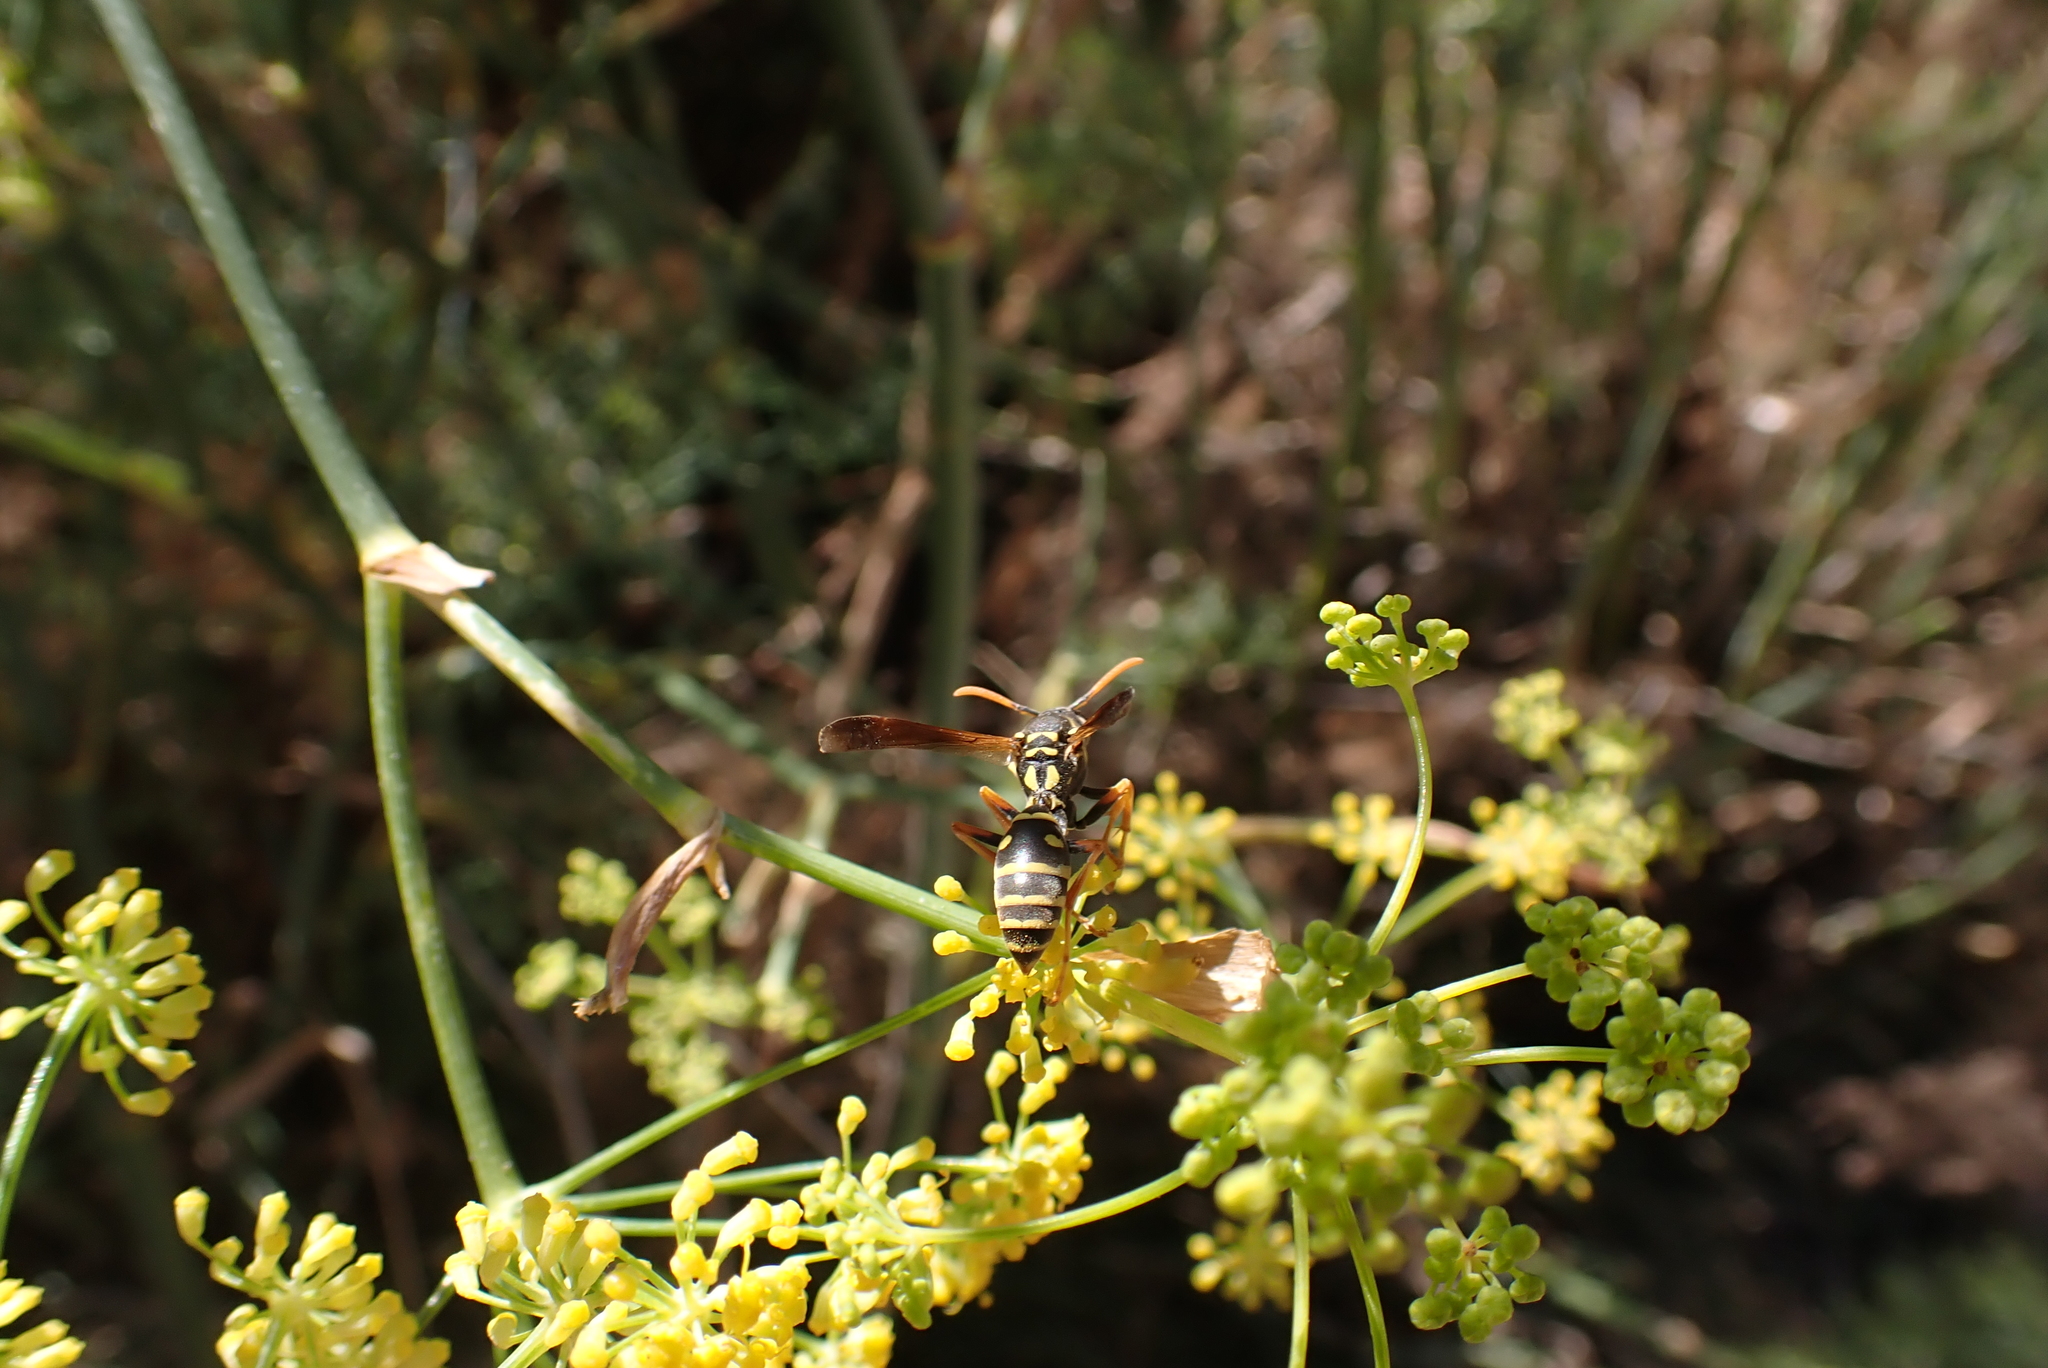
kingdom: Animalia
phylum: Arthropoda
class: Insecta
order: Hymenoptera
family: Eumenidae
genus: Polistes
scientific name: Polistes chinensis
